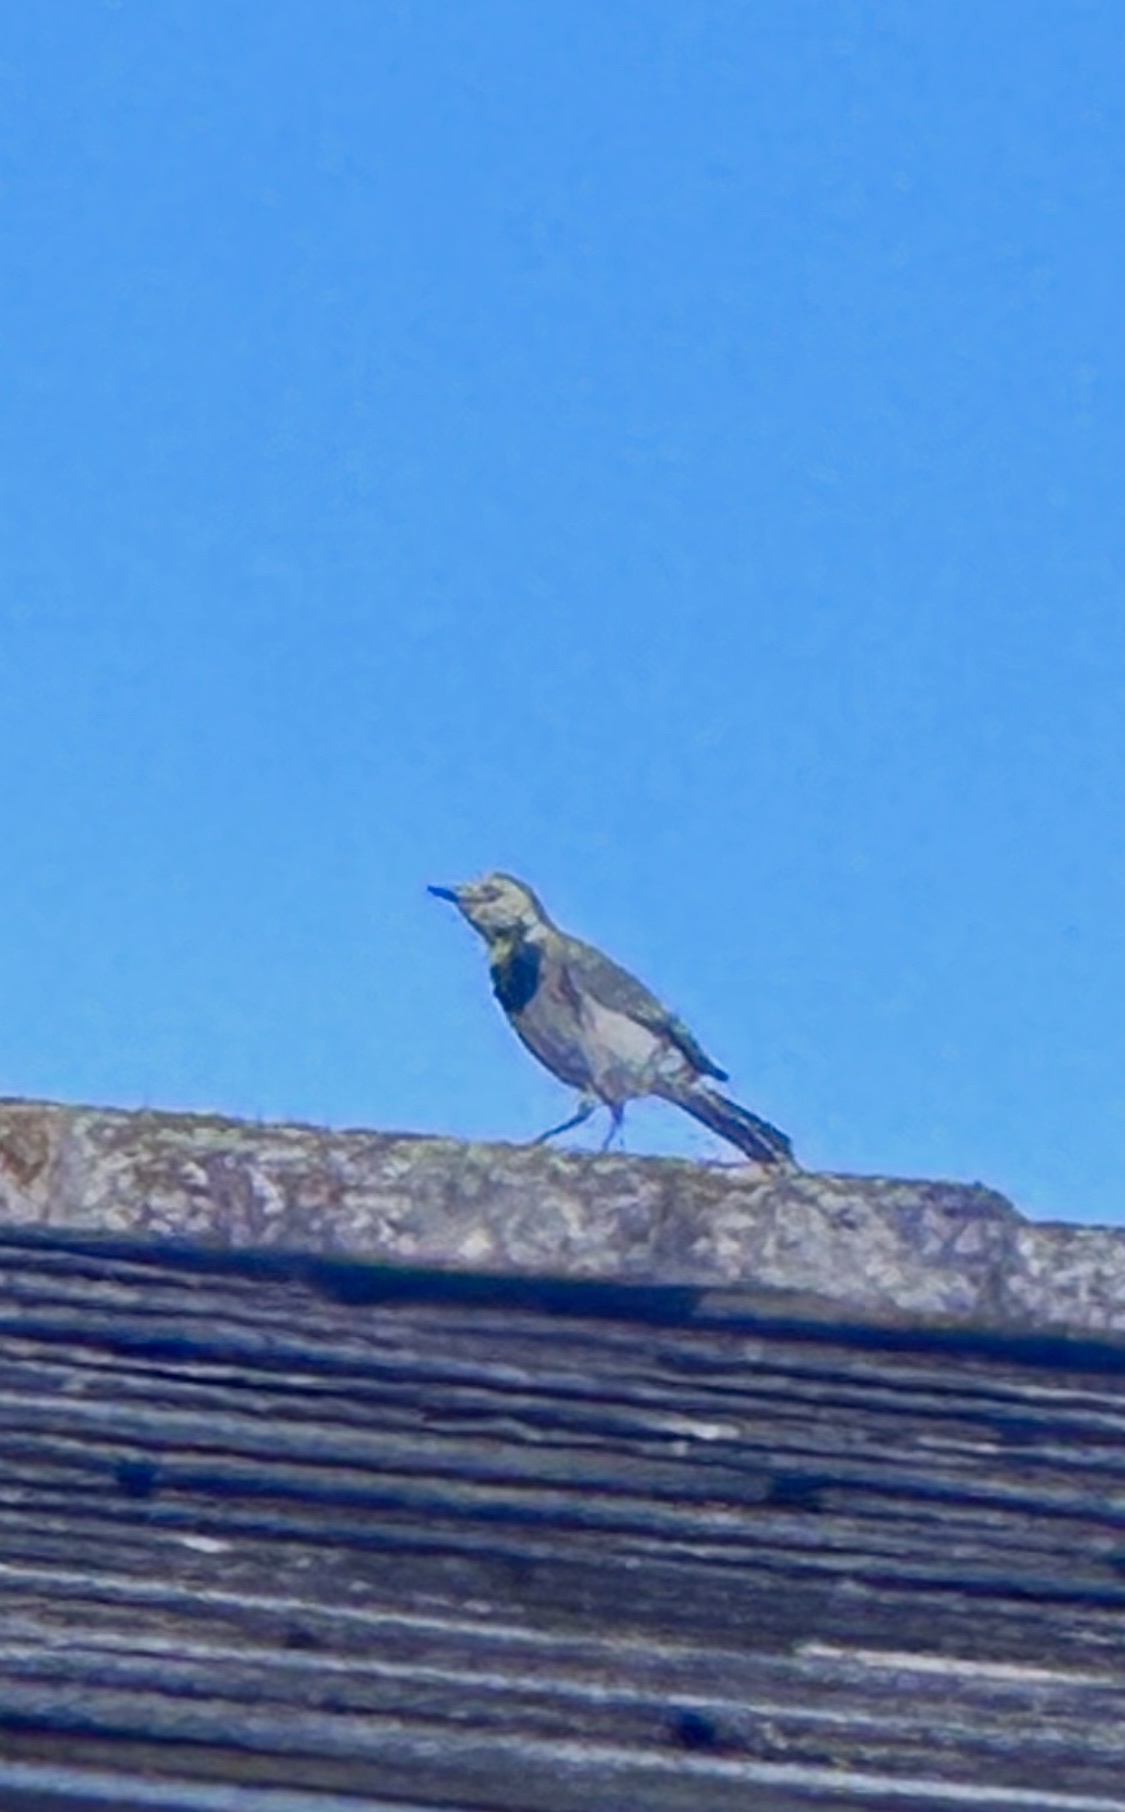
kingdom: Animalia
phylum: Chordata
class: Aves
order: Passeriformes
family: Motacillidae
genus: Motacilla
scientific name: Motacilla alba
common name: White wagtail
